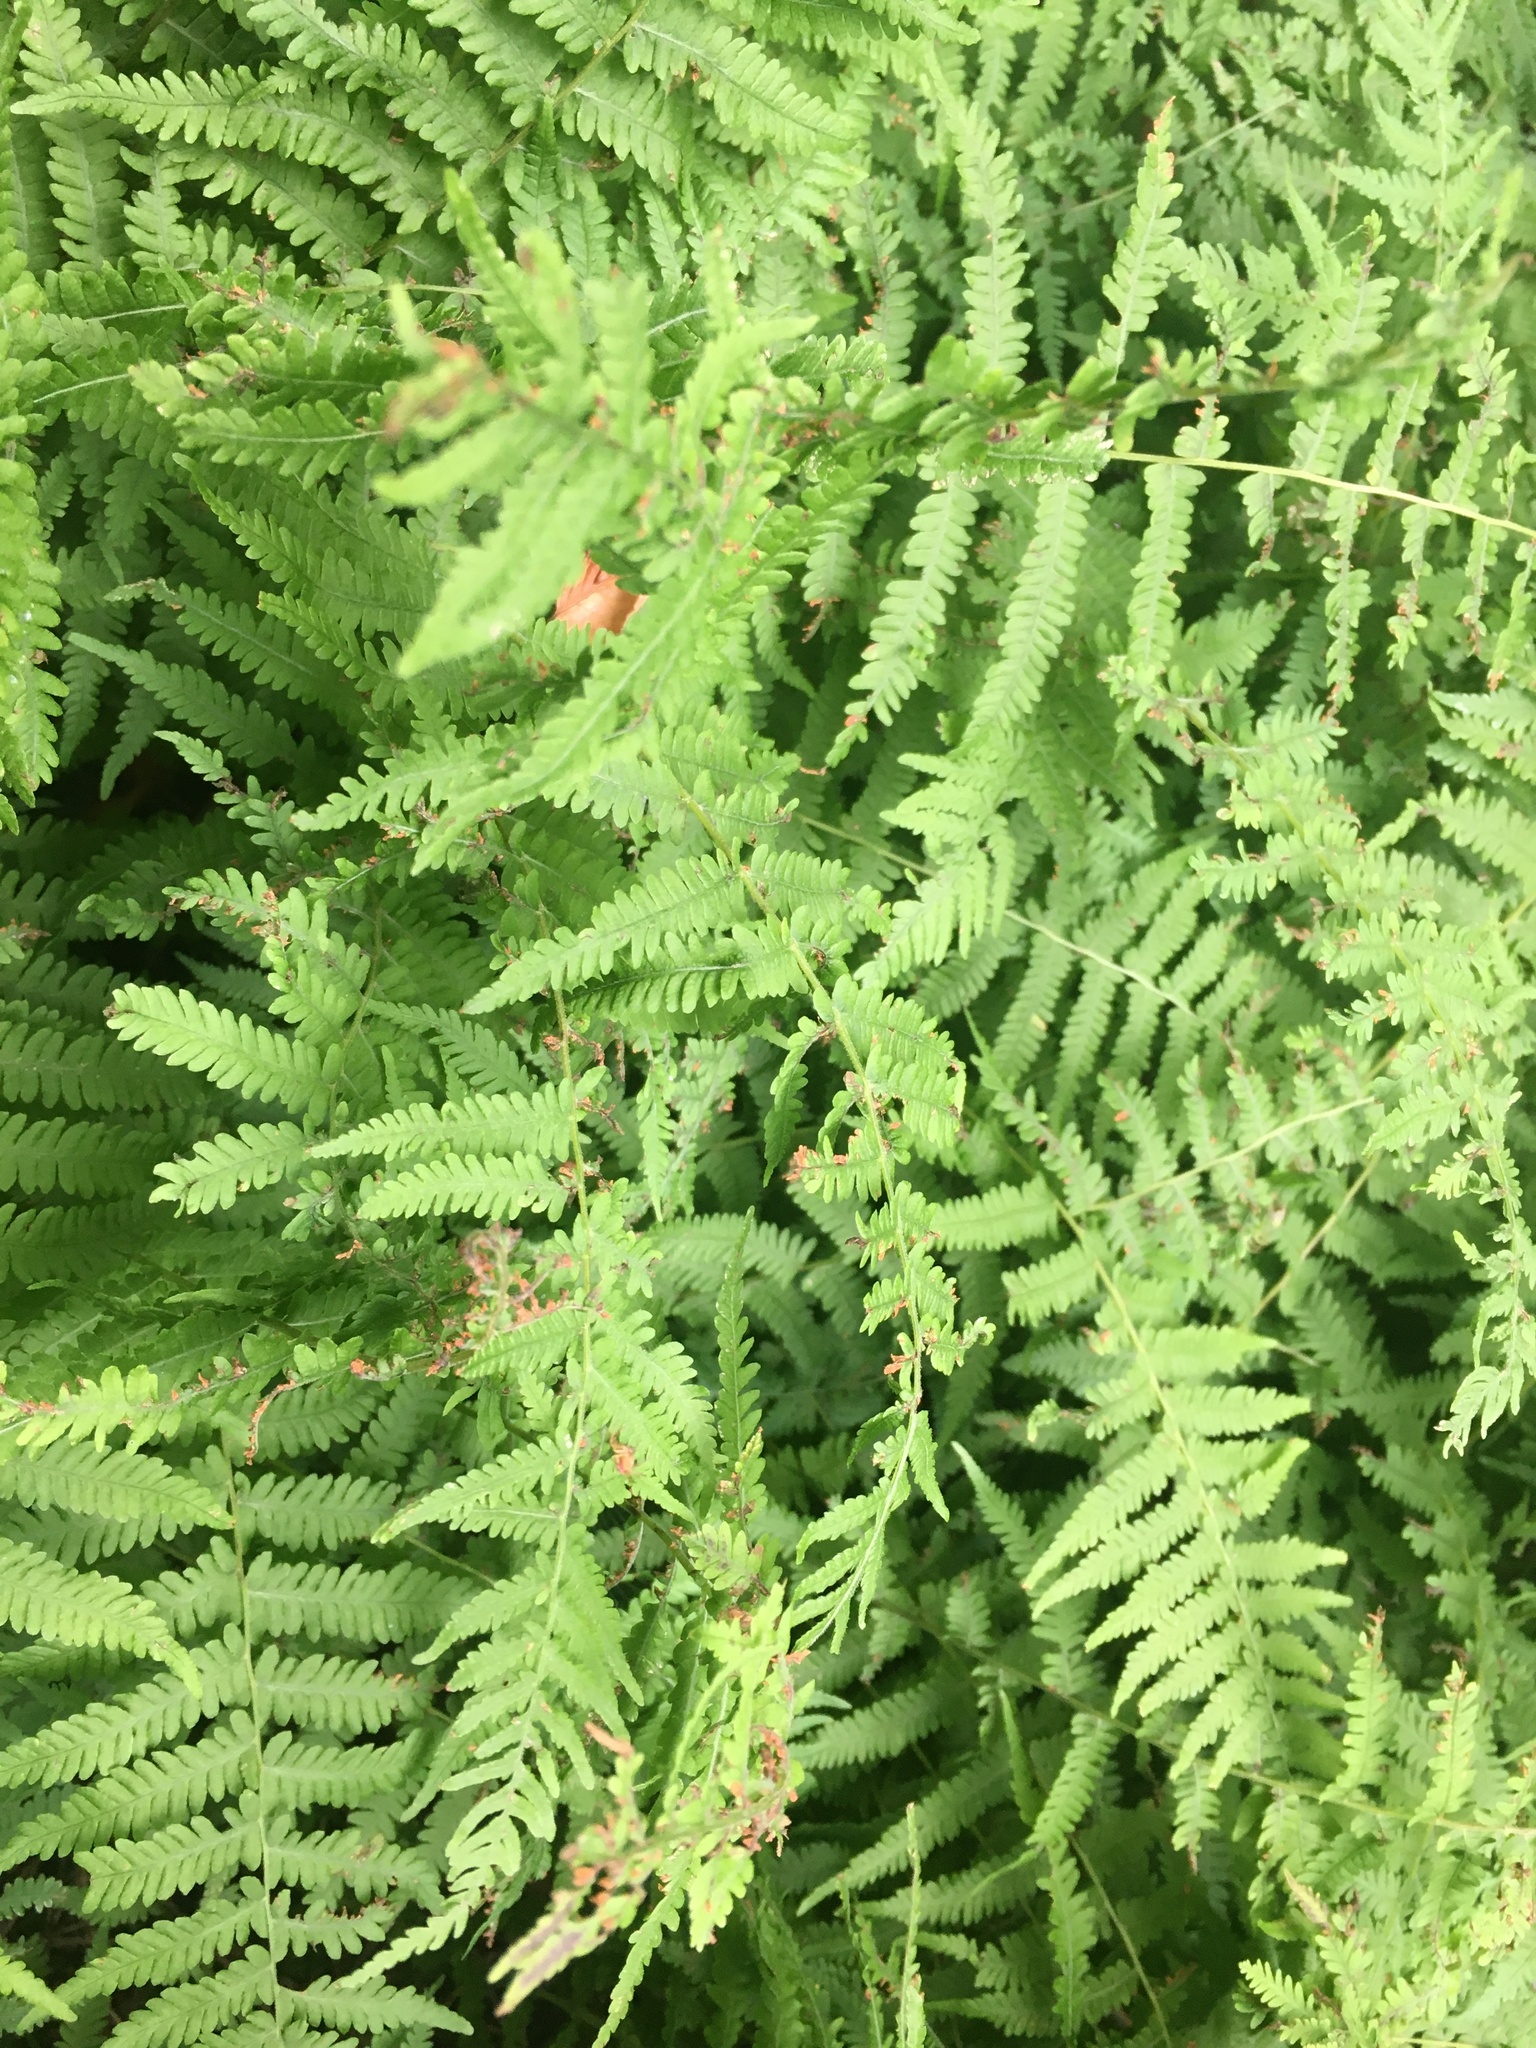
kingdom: Plantae
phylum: Tracheophyta
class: Polypodiopsida
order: Polypodiales
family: Thelypteridaceae
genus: Amauropelta
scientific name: Amauropelta noveboracensis
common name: New york fern
